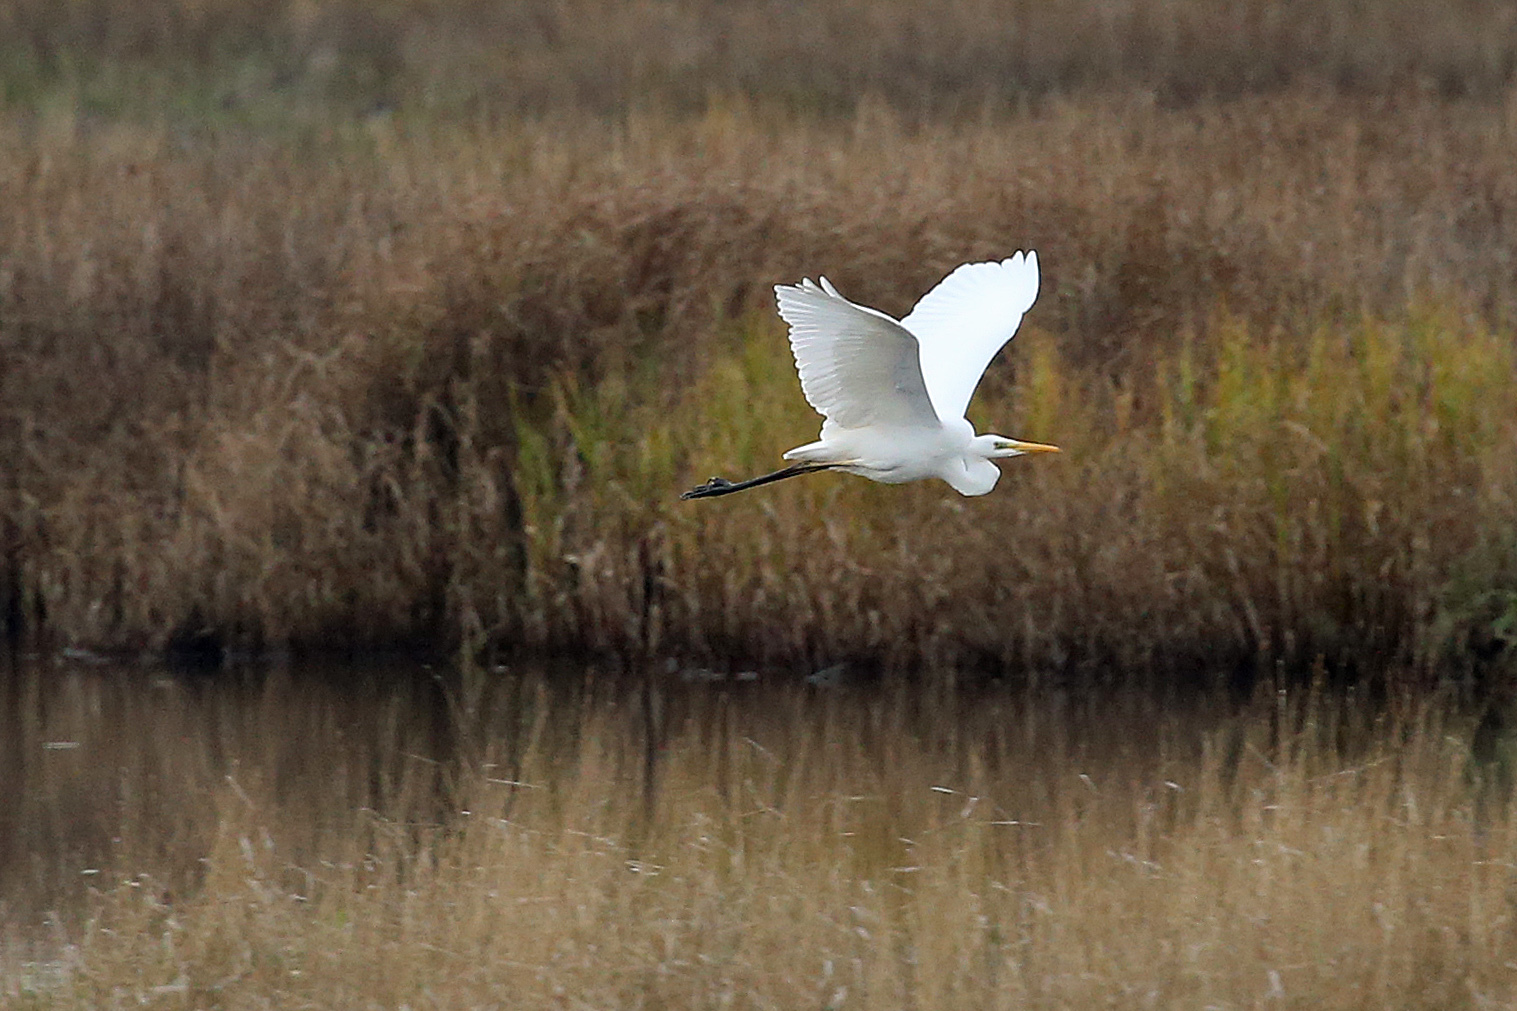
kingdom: Animalia
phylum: Chordata
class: Aves
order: Pelecaniformes
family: Ardeidae
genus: Ardea
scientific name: Ardea alba
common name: Great egret
